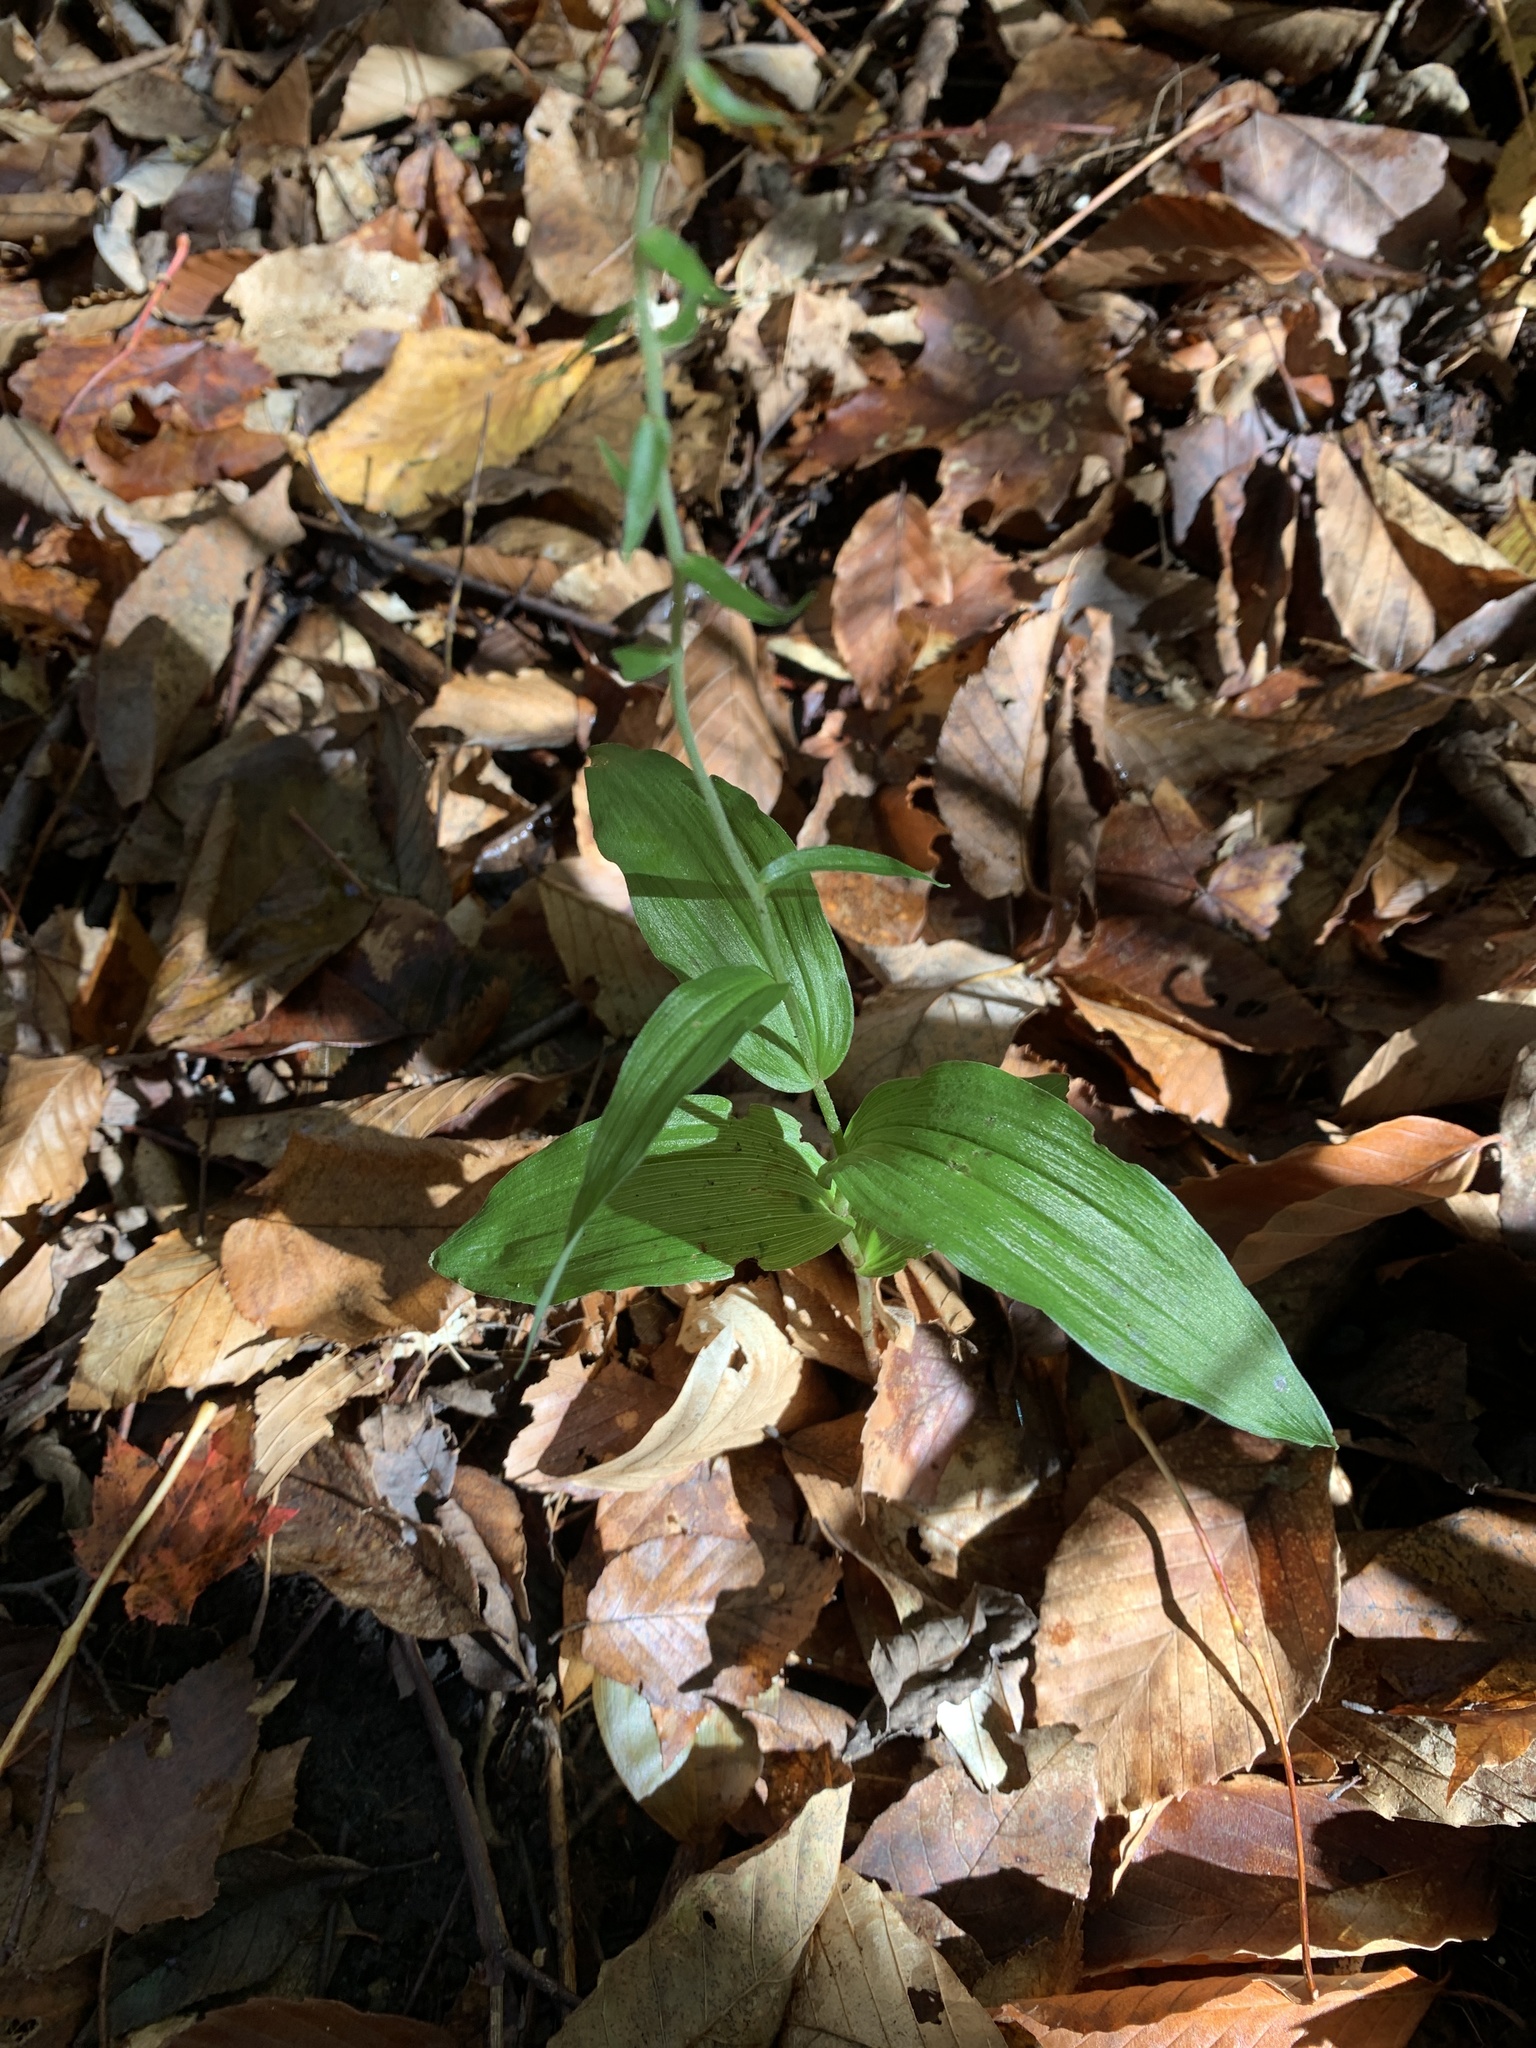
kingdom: Plantae
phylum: Tracheophyta
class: Liliopsida
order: Asparagales
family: Orchidaceae
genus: Epipactis
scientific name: Epipactis helleborine
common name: Broad-leaved helleborine
